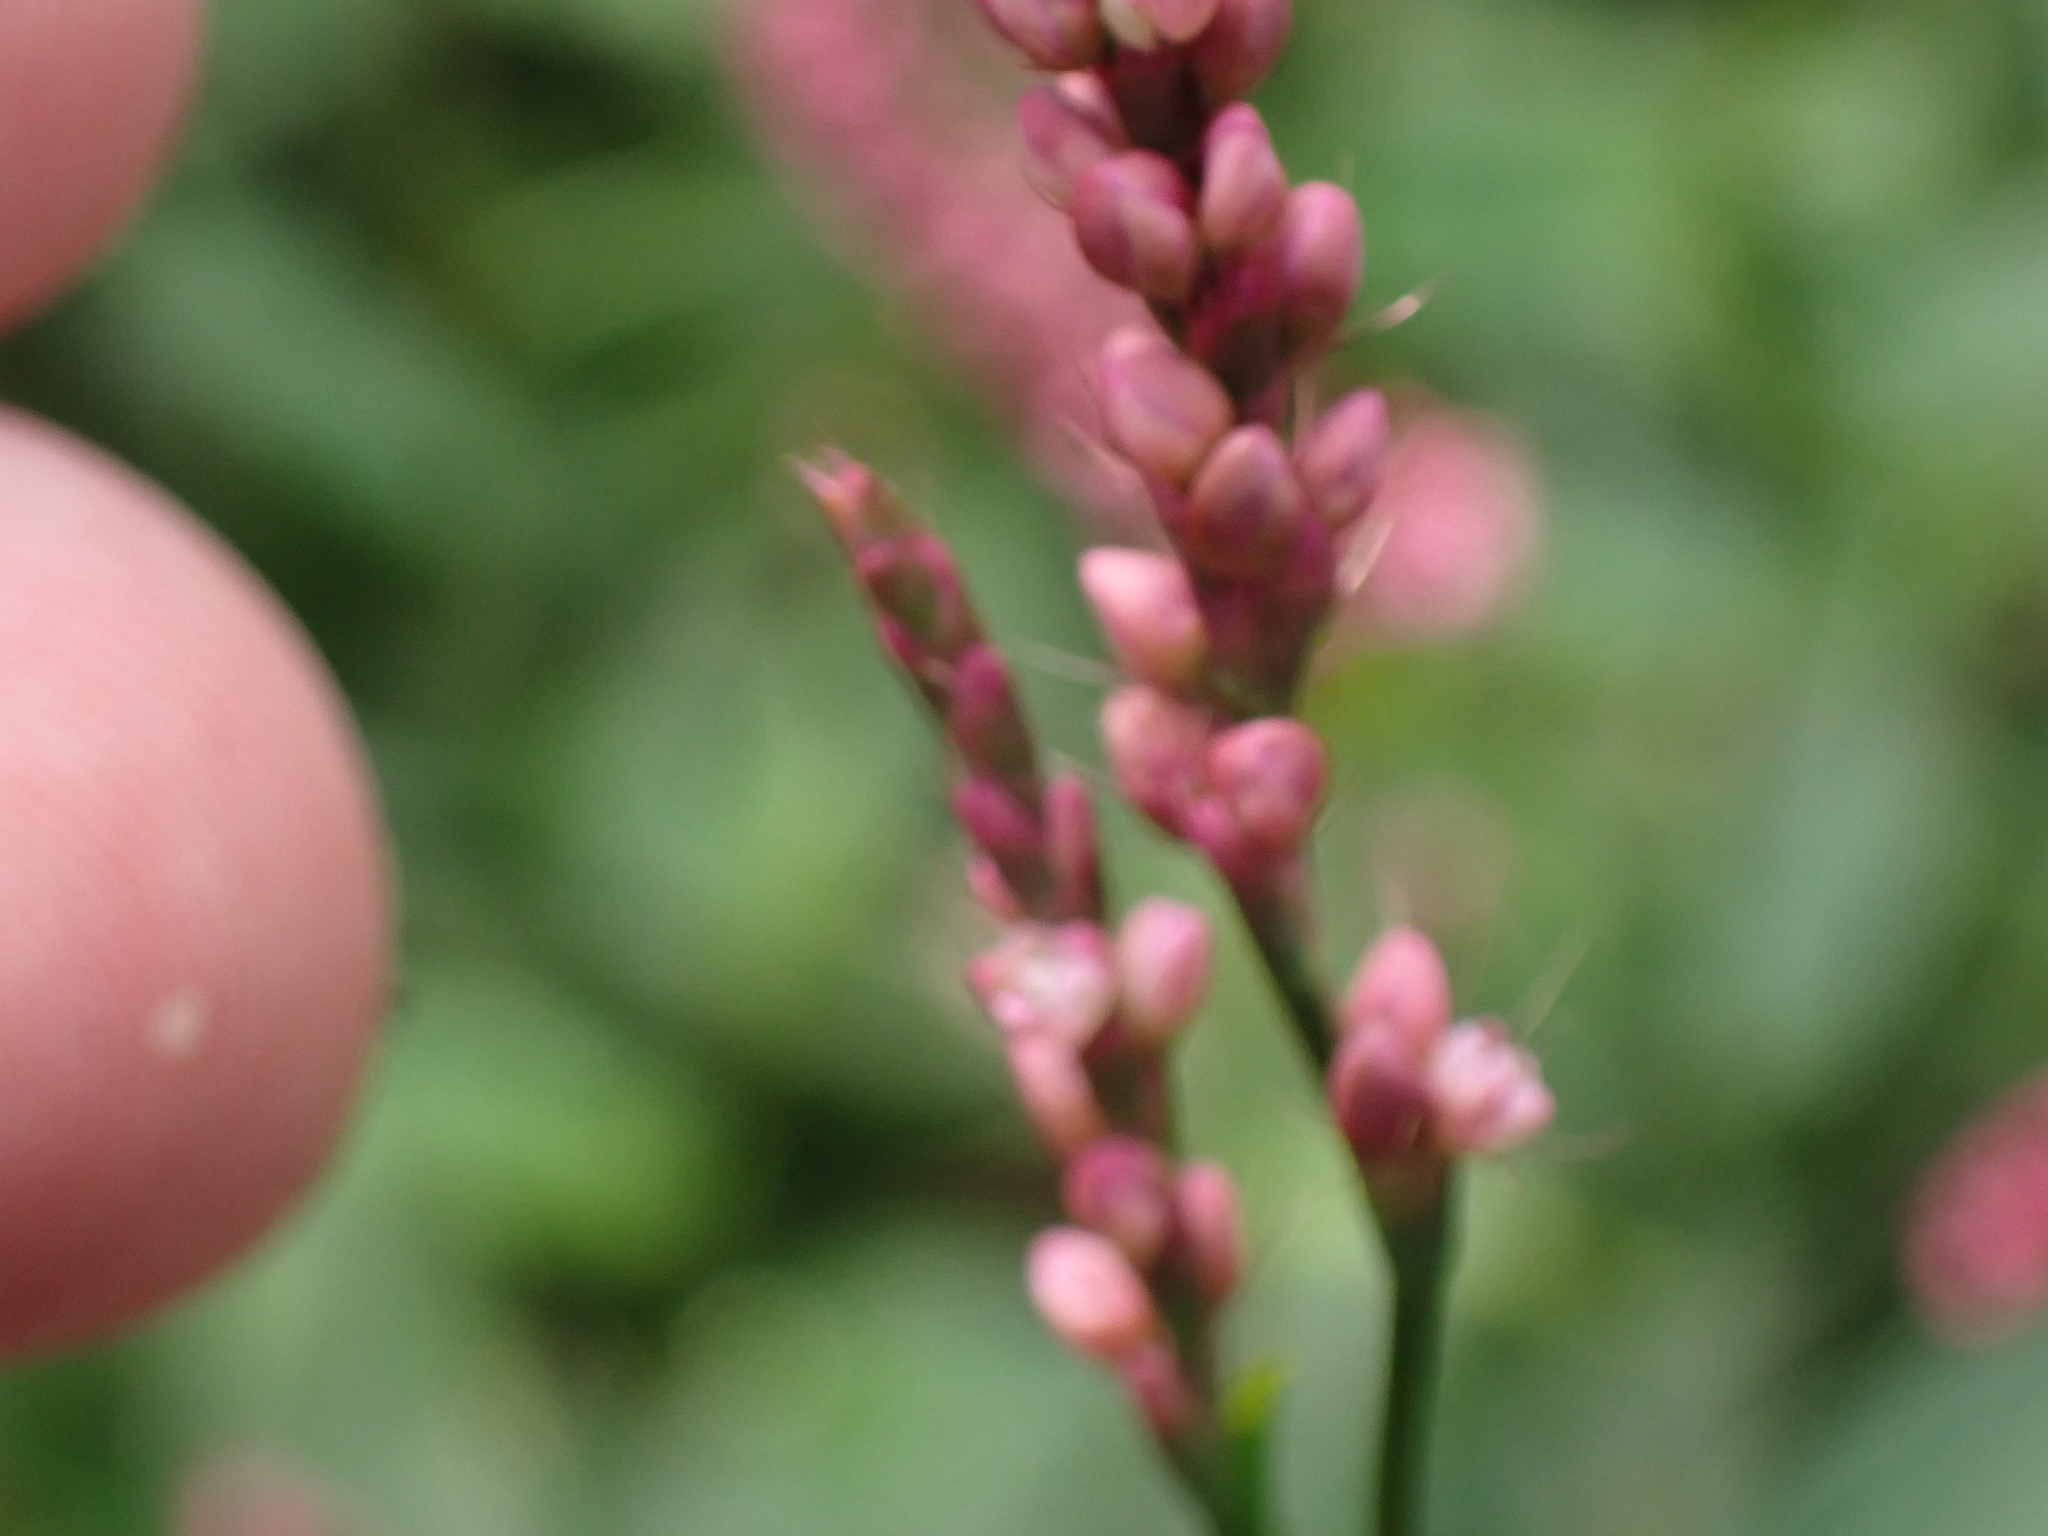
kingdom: Plantae
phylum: Tracheophyta
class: Magnoliopsida
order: Caryophyllales
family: Polygonaceae
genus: Persicaria
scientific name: Persicaria longiseta
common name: Bristly lady's-thumb
